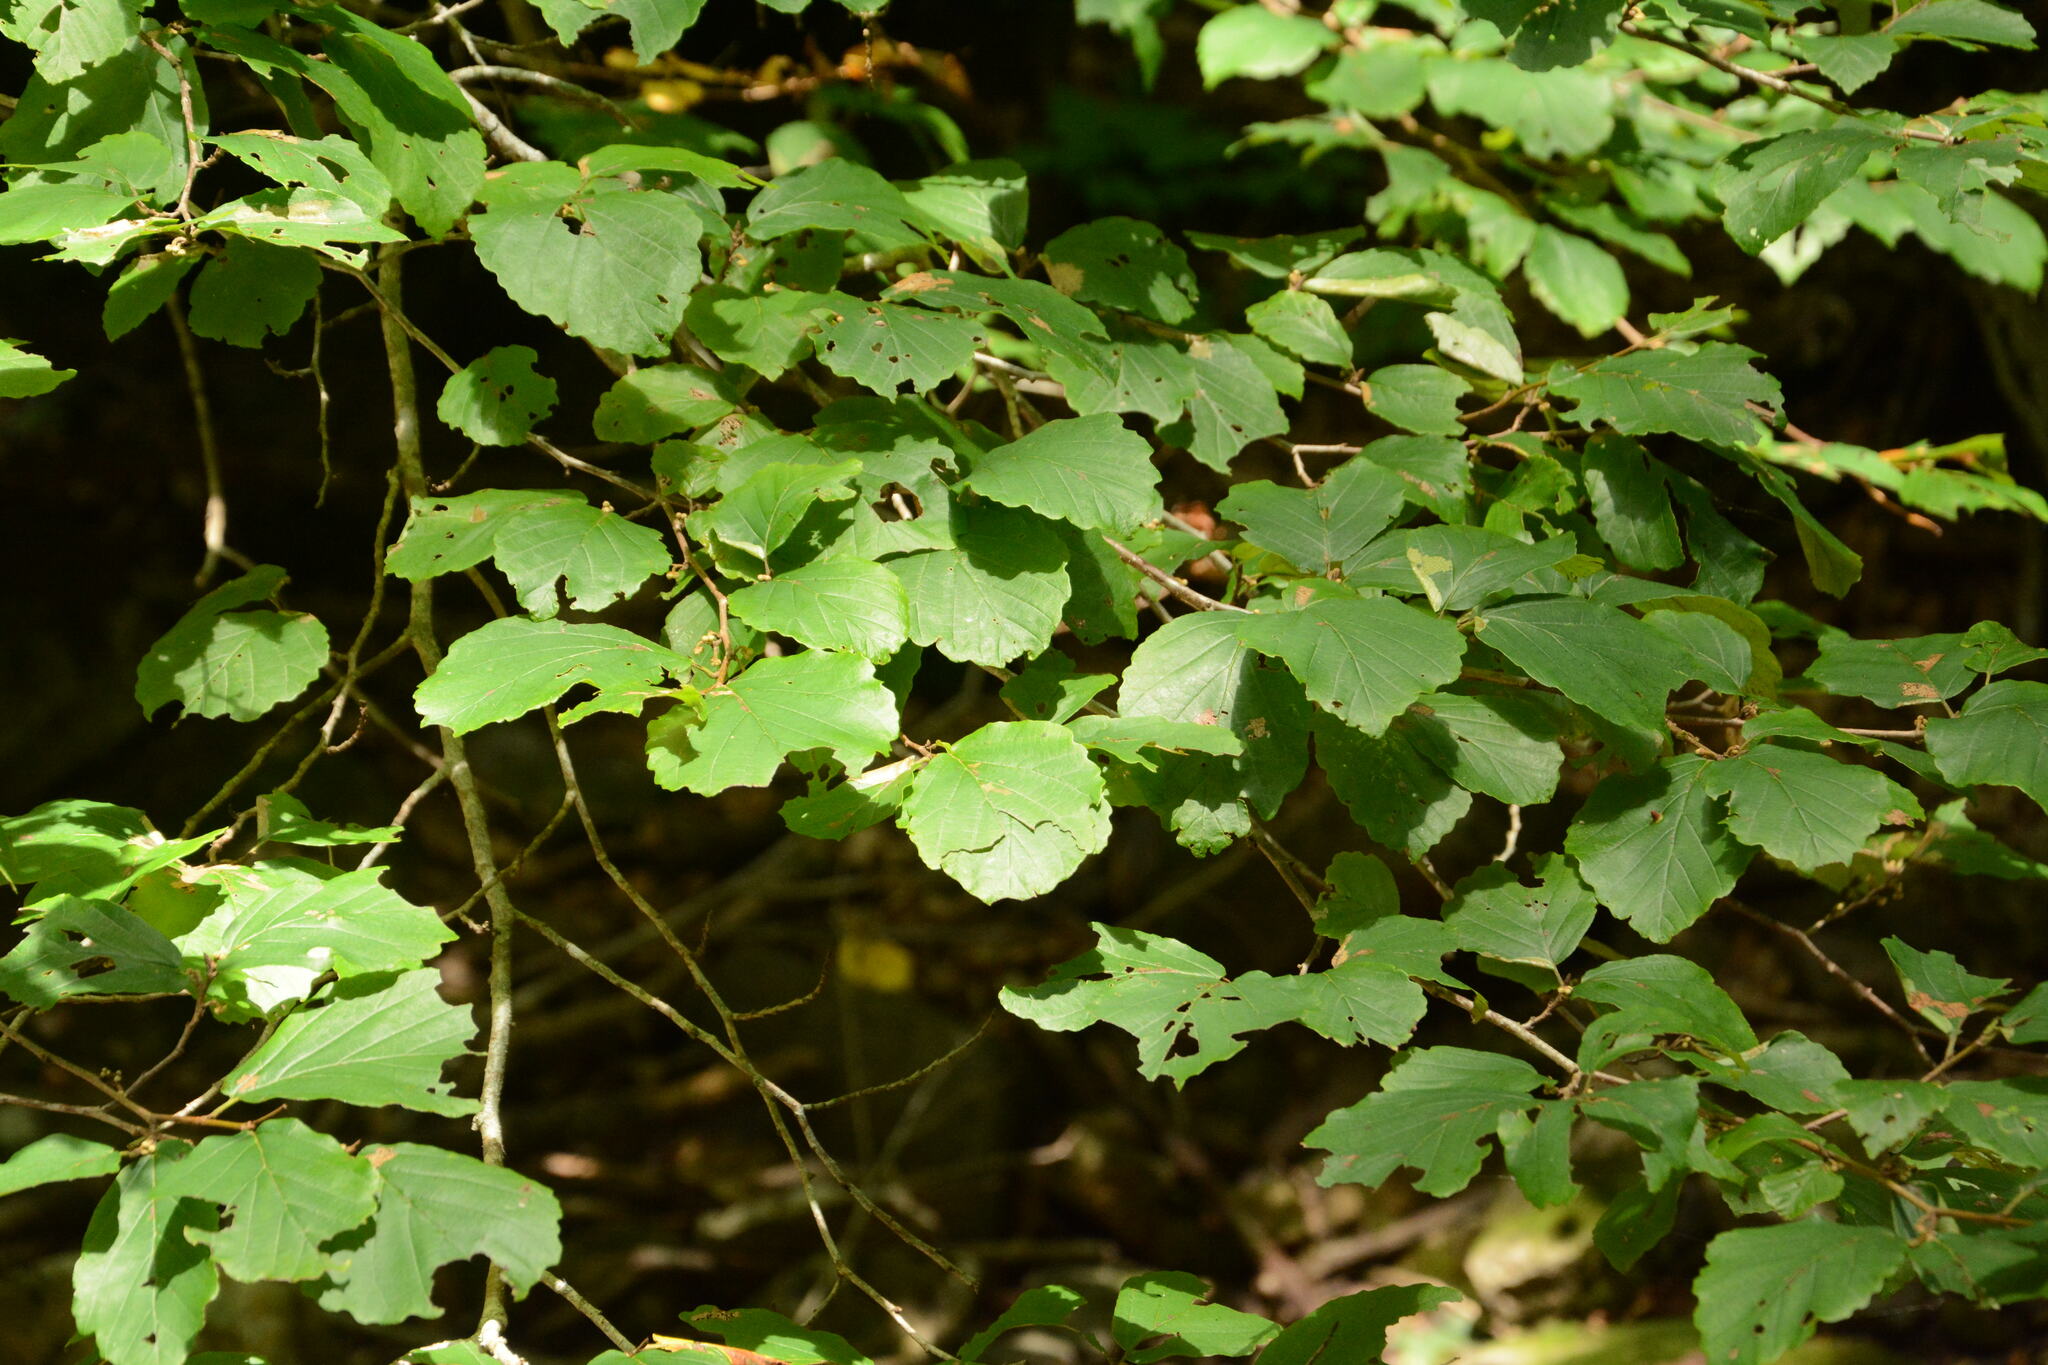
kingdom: Plantae
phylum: Tracheophyta
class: Magnoliopsida
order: Saxifragales
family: Hamamelidaceae
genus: Hamamelis
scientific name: Hamamelis virginiana
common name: Witch-hazel
